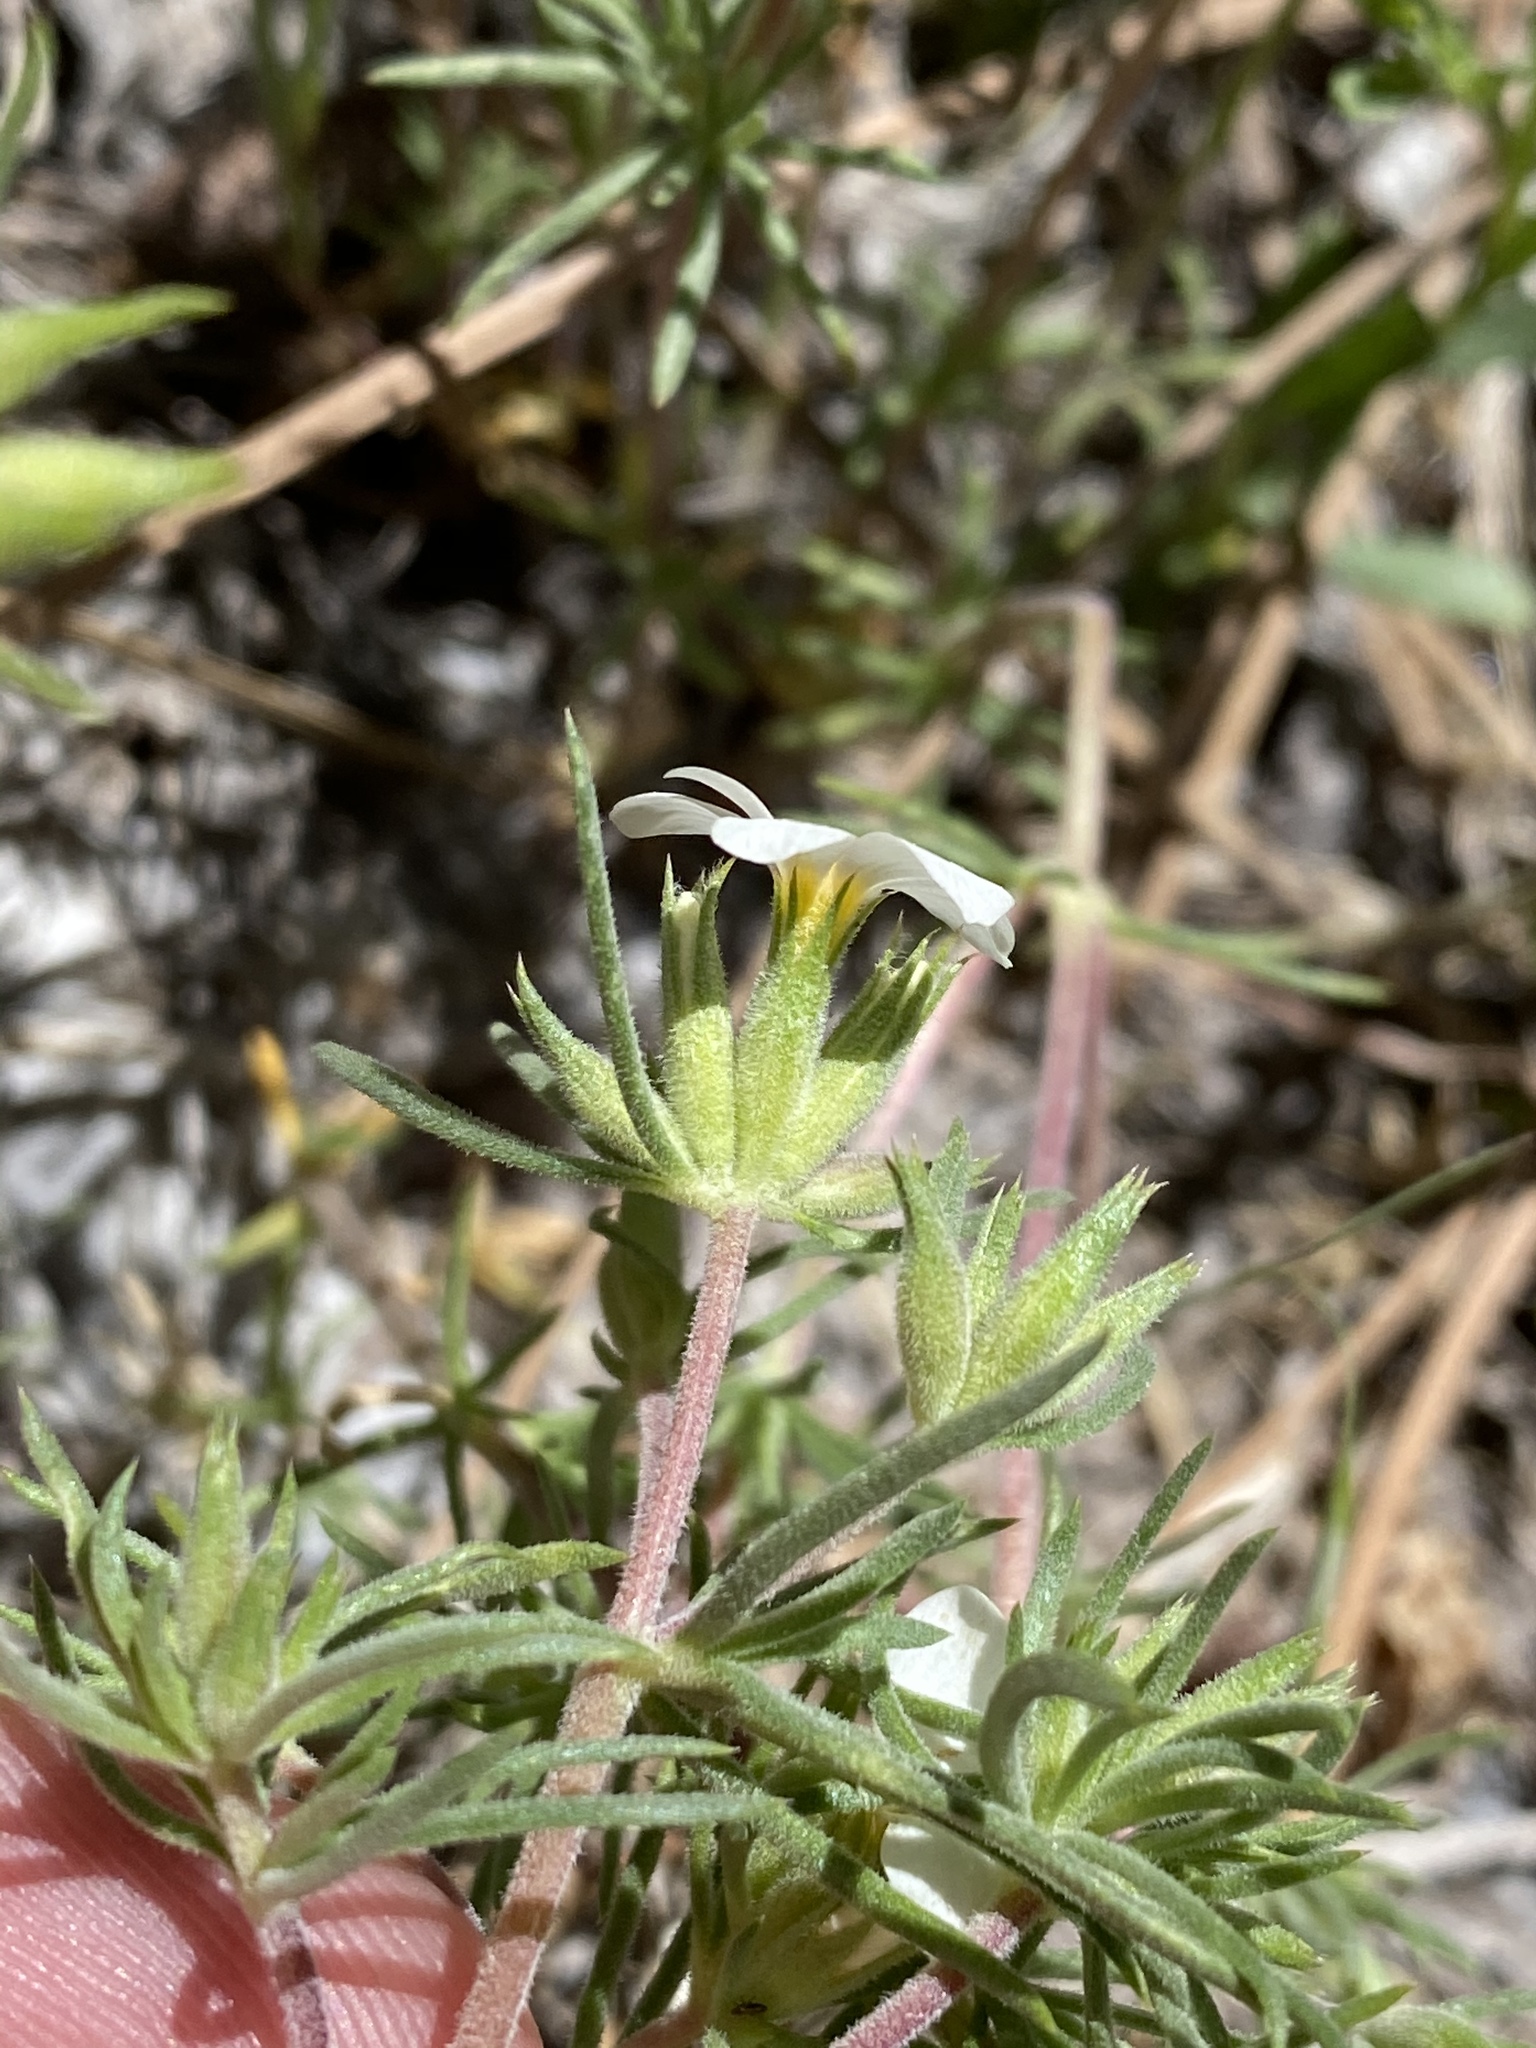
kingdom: Plantae
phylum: Tracheophyta
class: Magnoliopsida
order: Ericales
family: Polemoniaceae
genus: Leptosiphon
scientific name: Leptosiphon nuttallii
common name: Nuttall's linanthus
